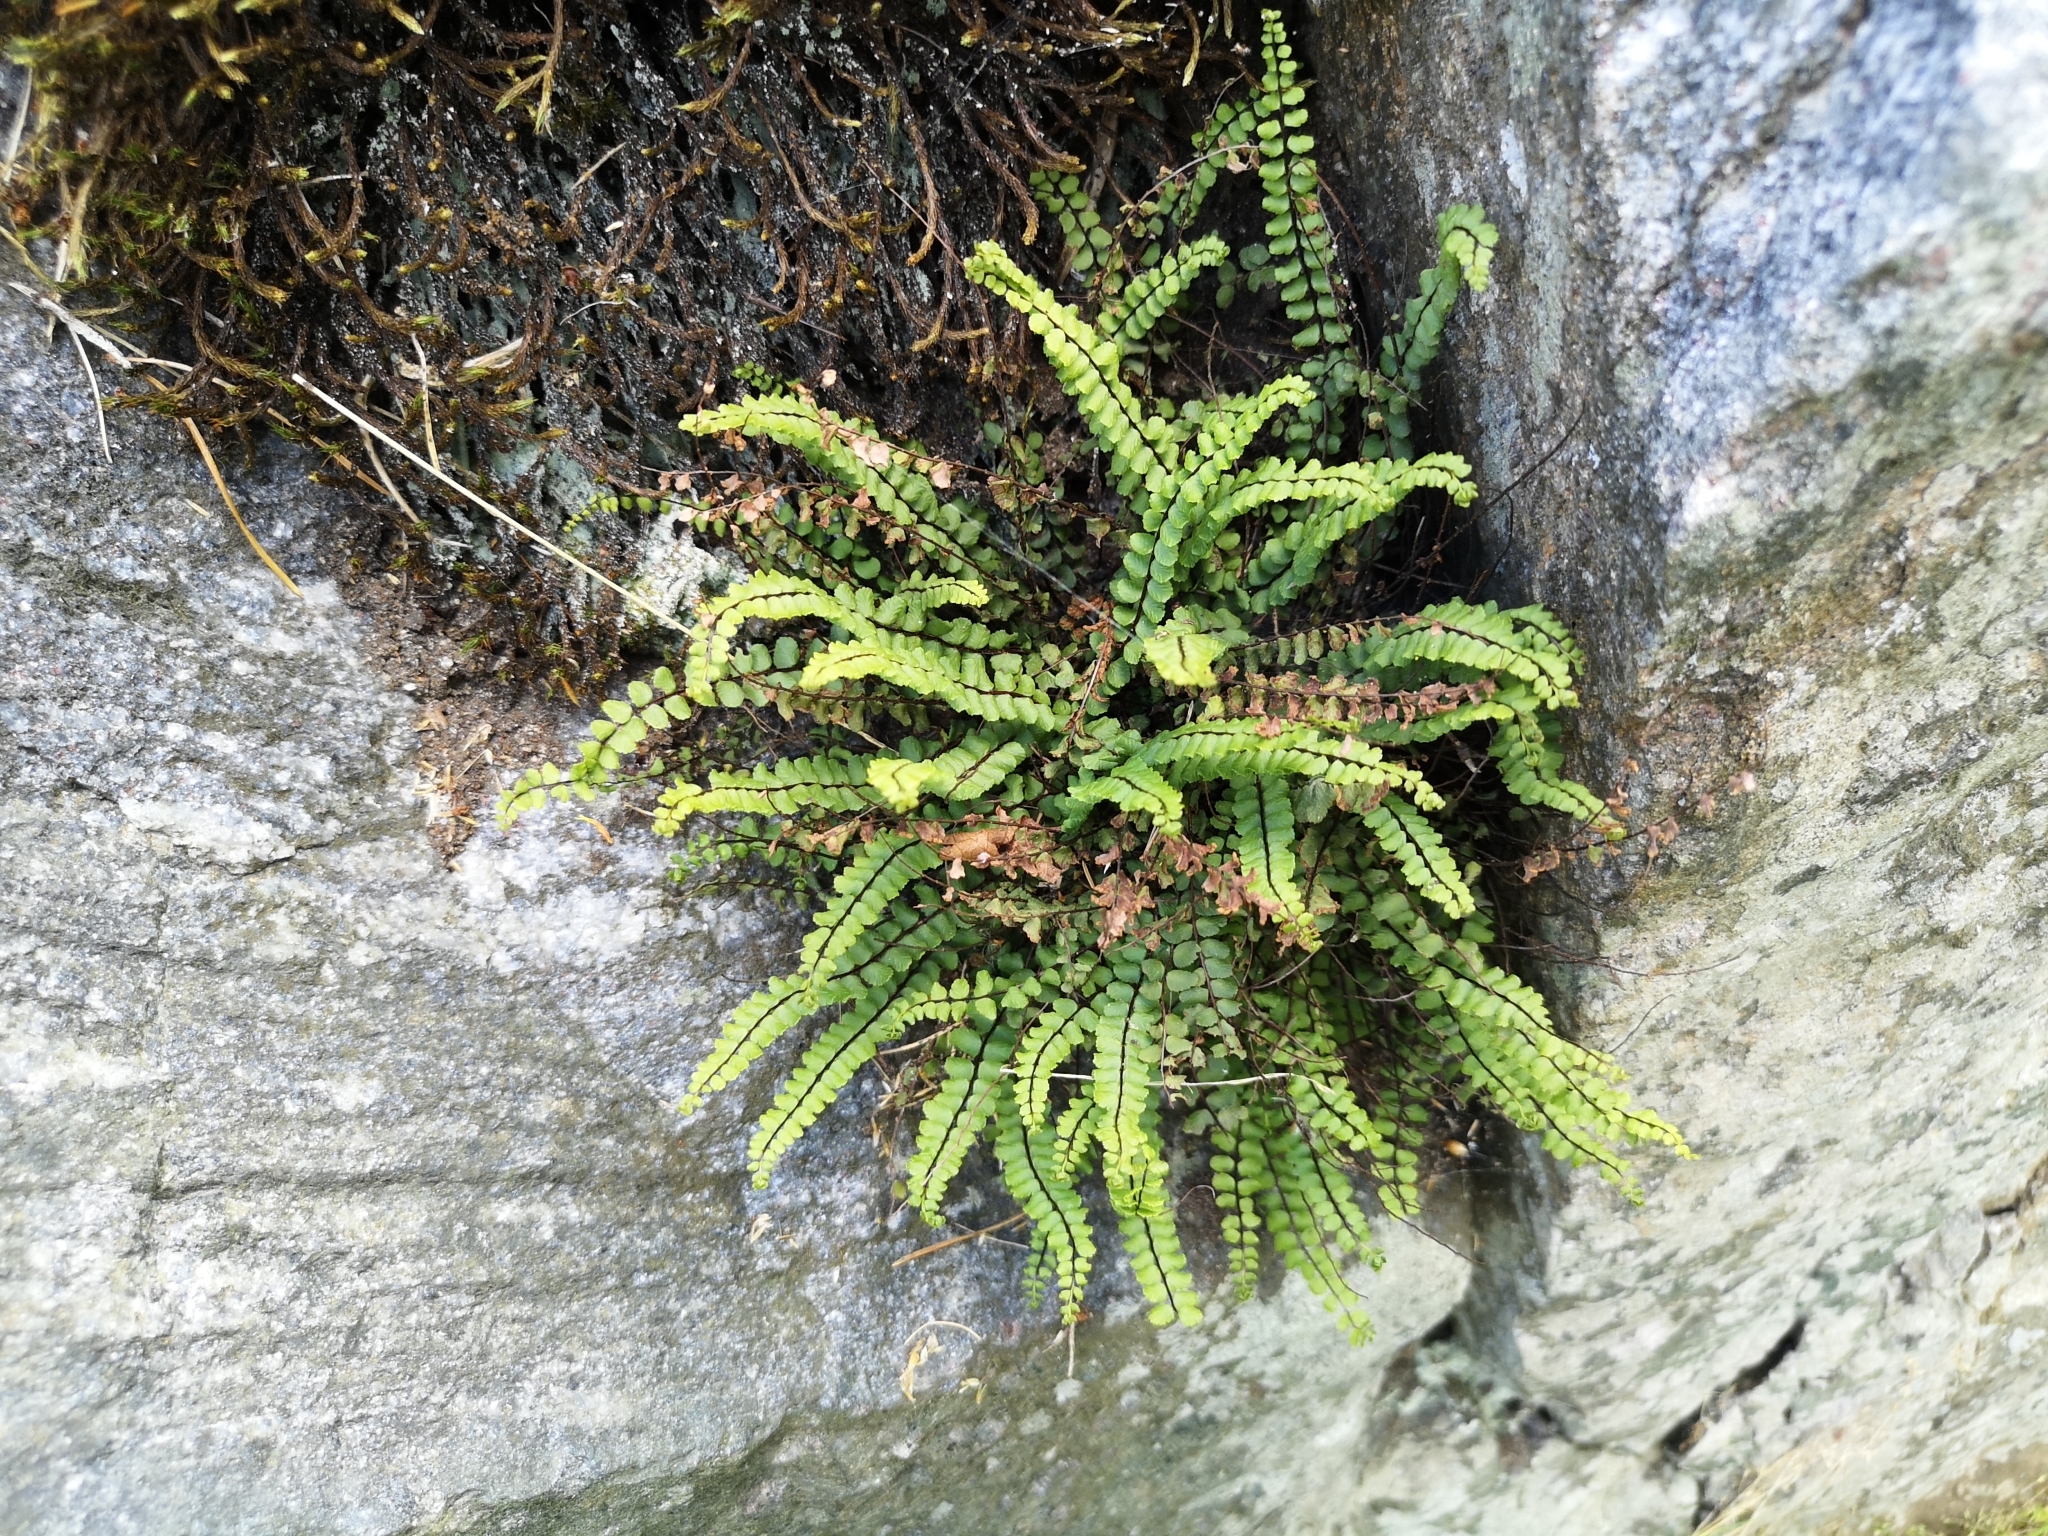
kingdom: Plantae
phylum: Tracheophyta
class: Polypodiopsida
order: Polypodiales
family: Aspleniaceae
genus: Asplenium
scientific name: Asplenium trichomanes
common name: Maidenhair spleenwort
